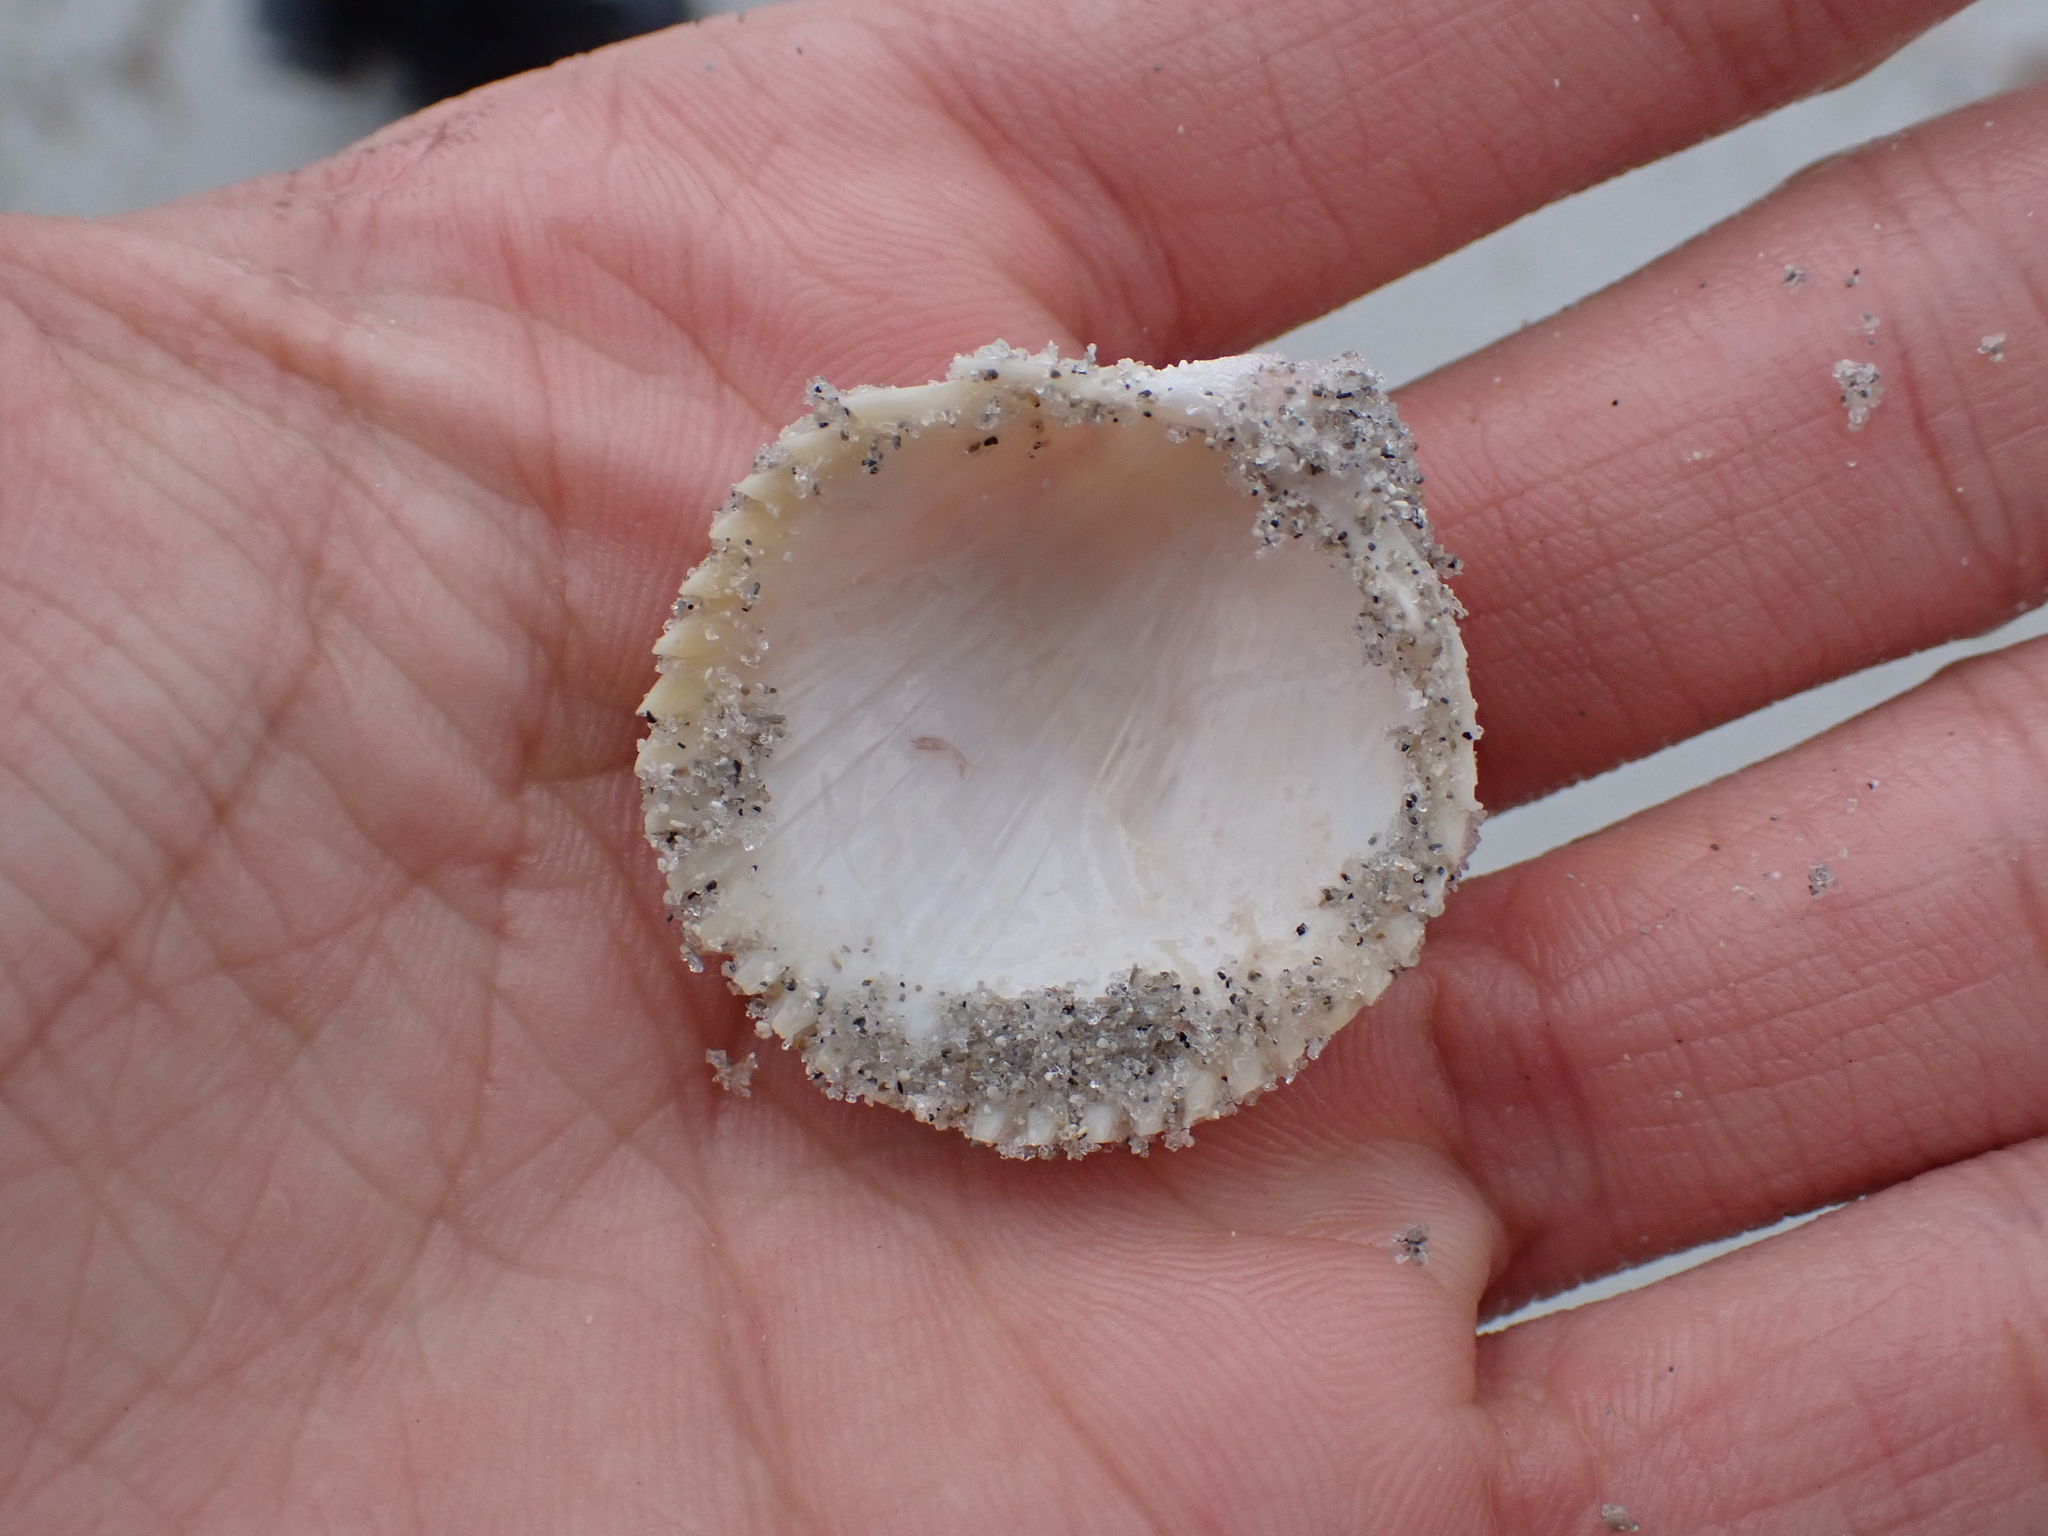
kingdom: Animalia
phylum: Mollusca
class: Bivalvia
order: Cardiida
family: Cardiidae
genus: Dallocardia
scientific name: Dallocardia muricata
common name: Yellow pricklycockle
